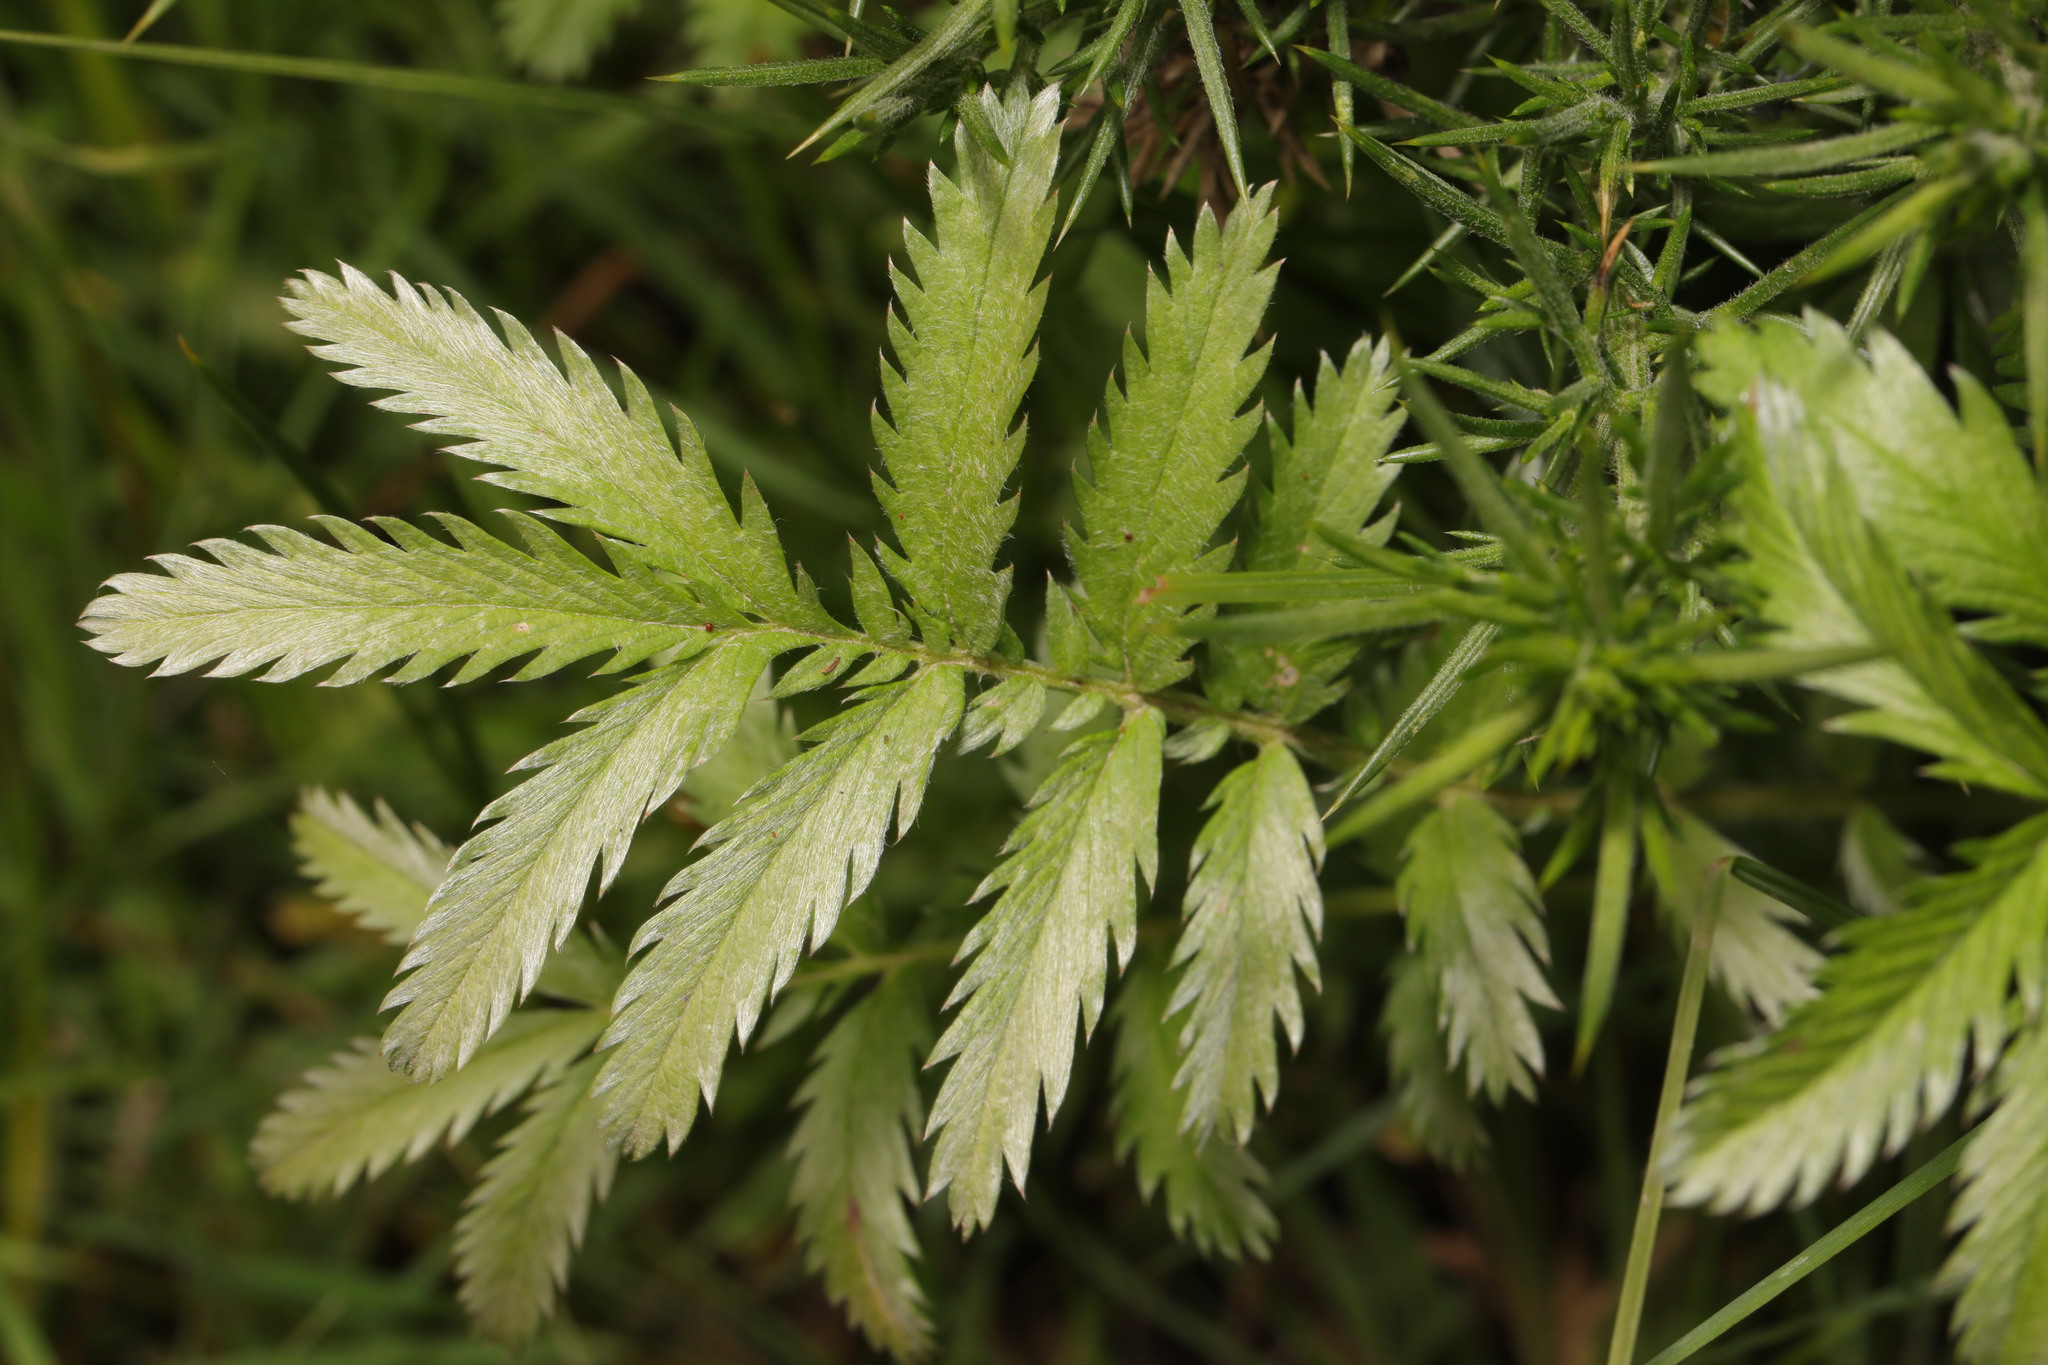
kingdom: Plantae
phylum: Tracheophyta
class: Magnoliopsida
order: Rosales
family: Rosaceae
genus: Argentina
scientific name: Argentina anserina
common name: Common silverweed
